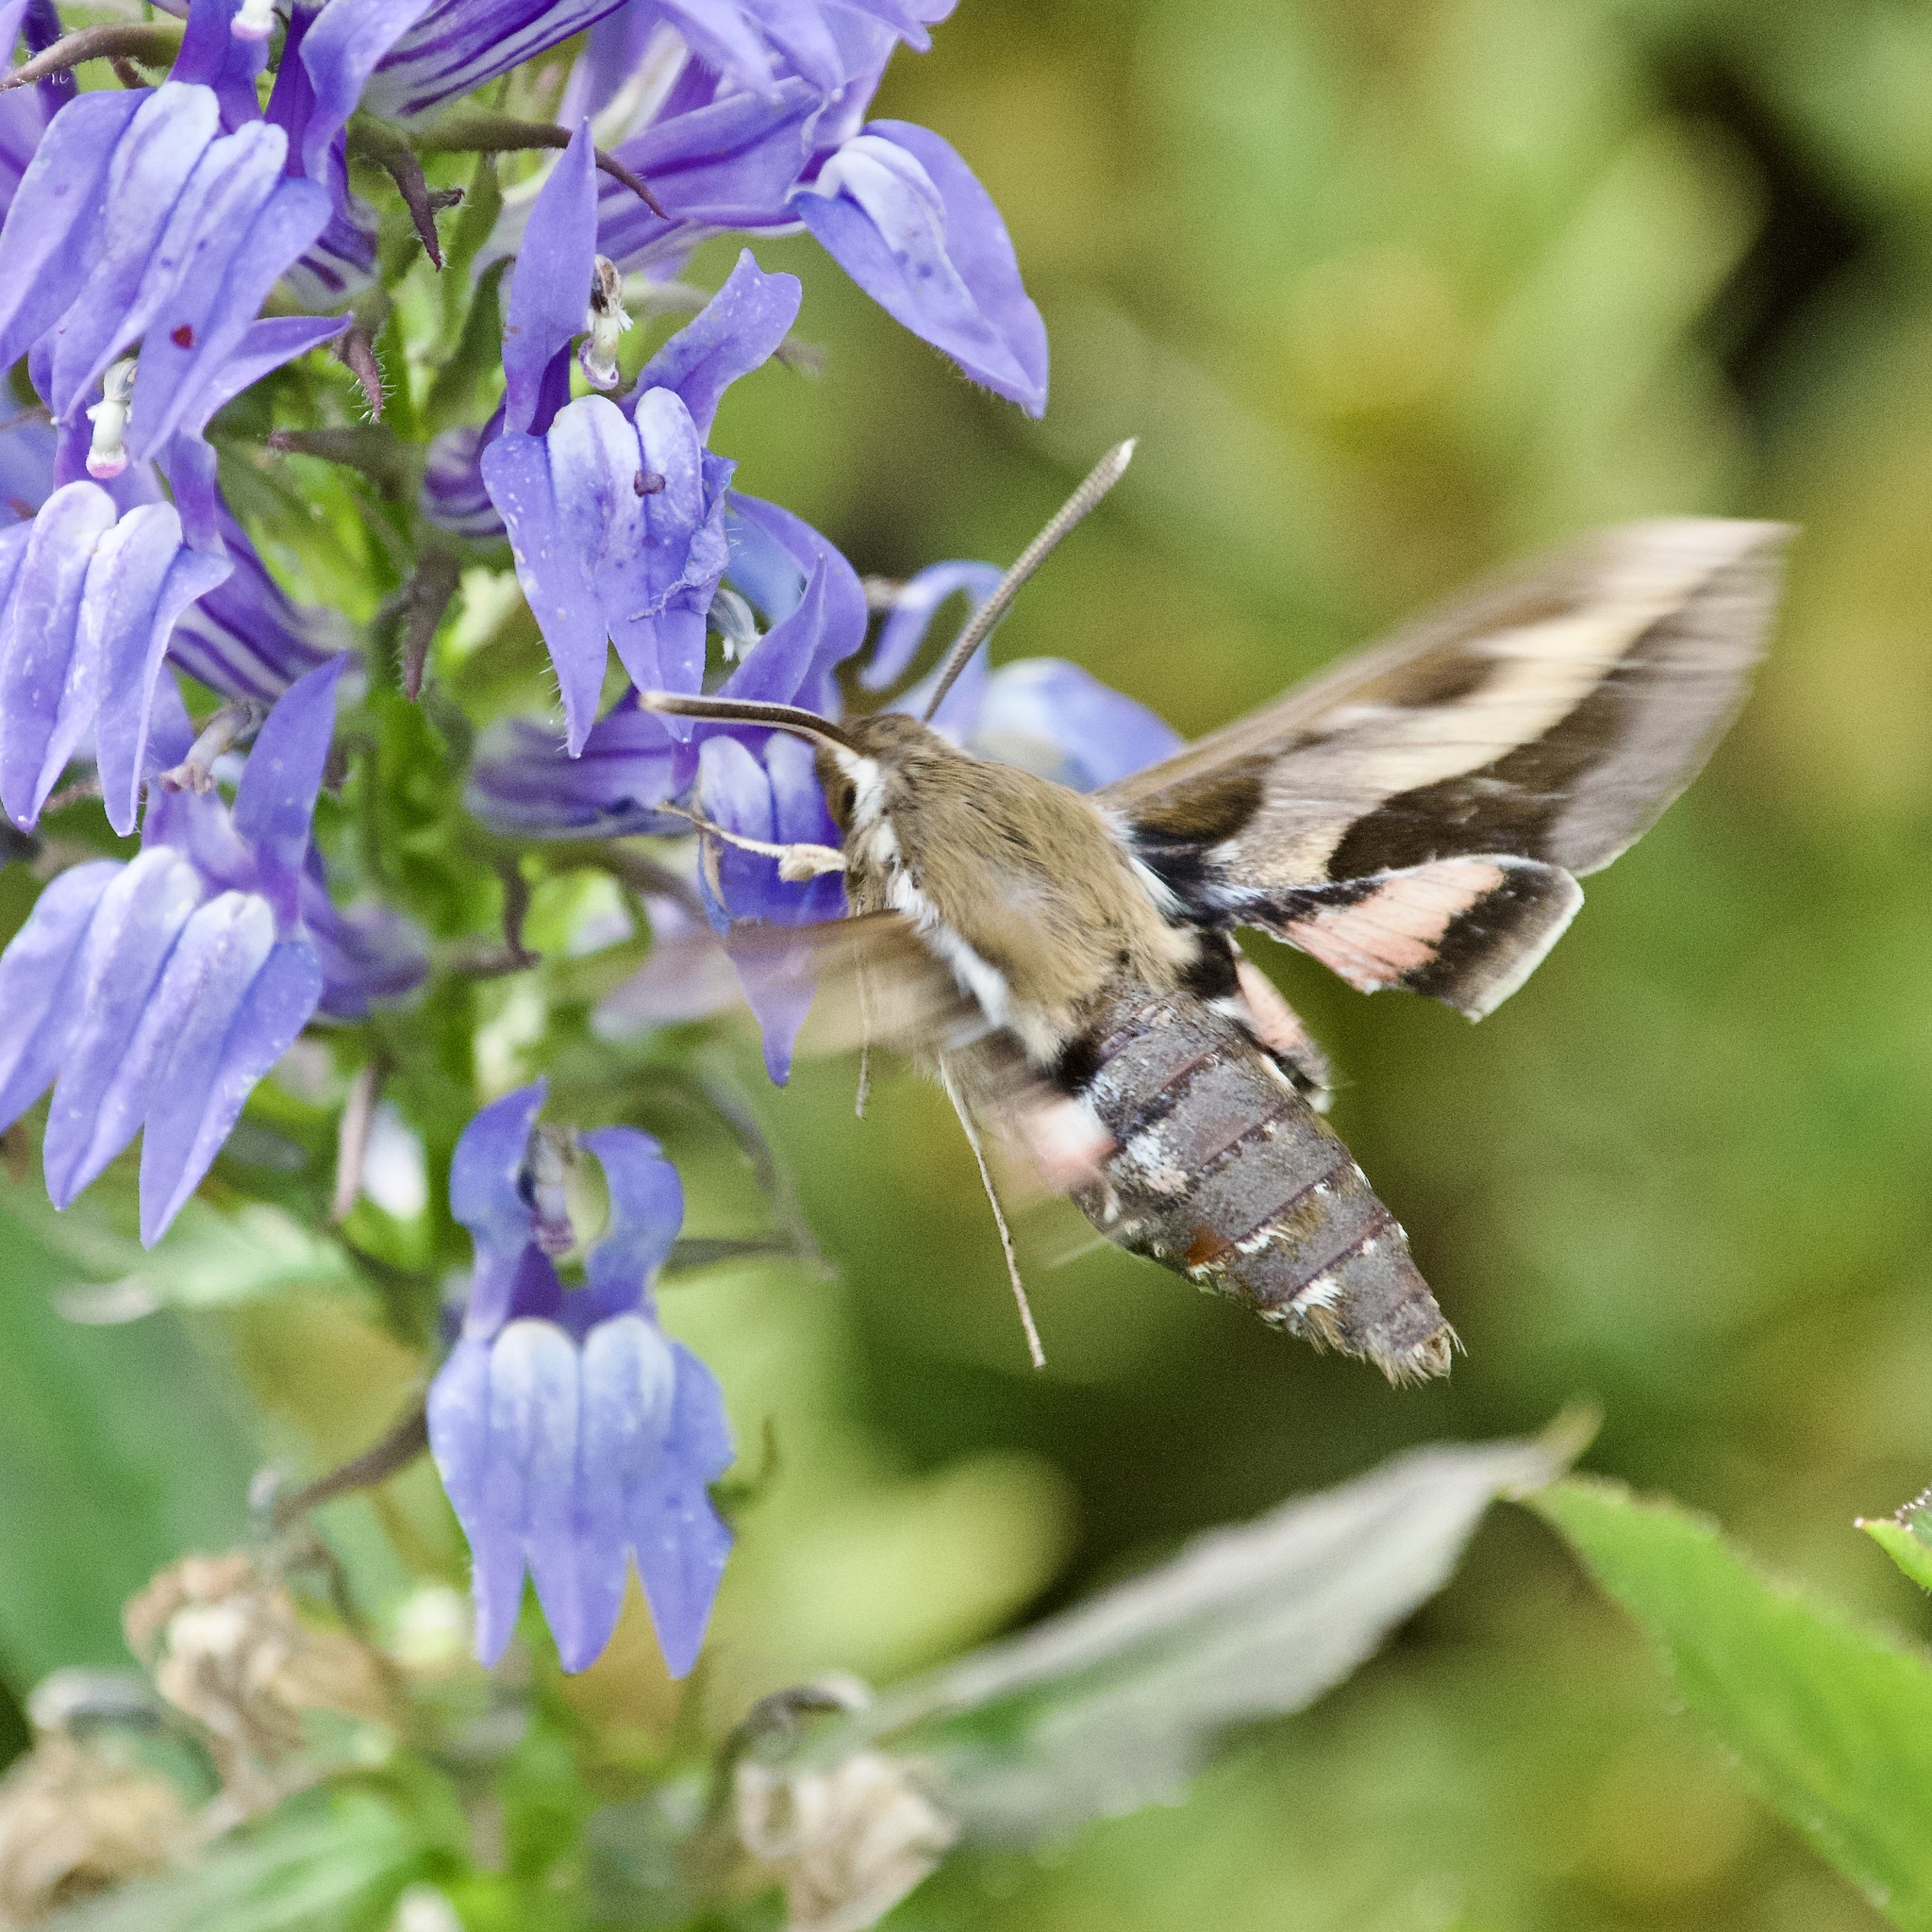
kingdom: Animalia
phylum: Arthropoda
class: Insecta
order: Lepidoptera
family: Sphingidae
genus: Hyles
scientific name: Hyles gallii
